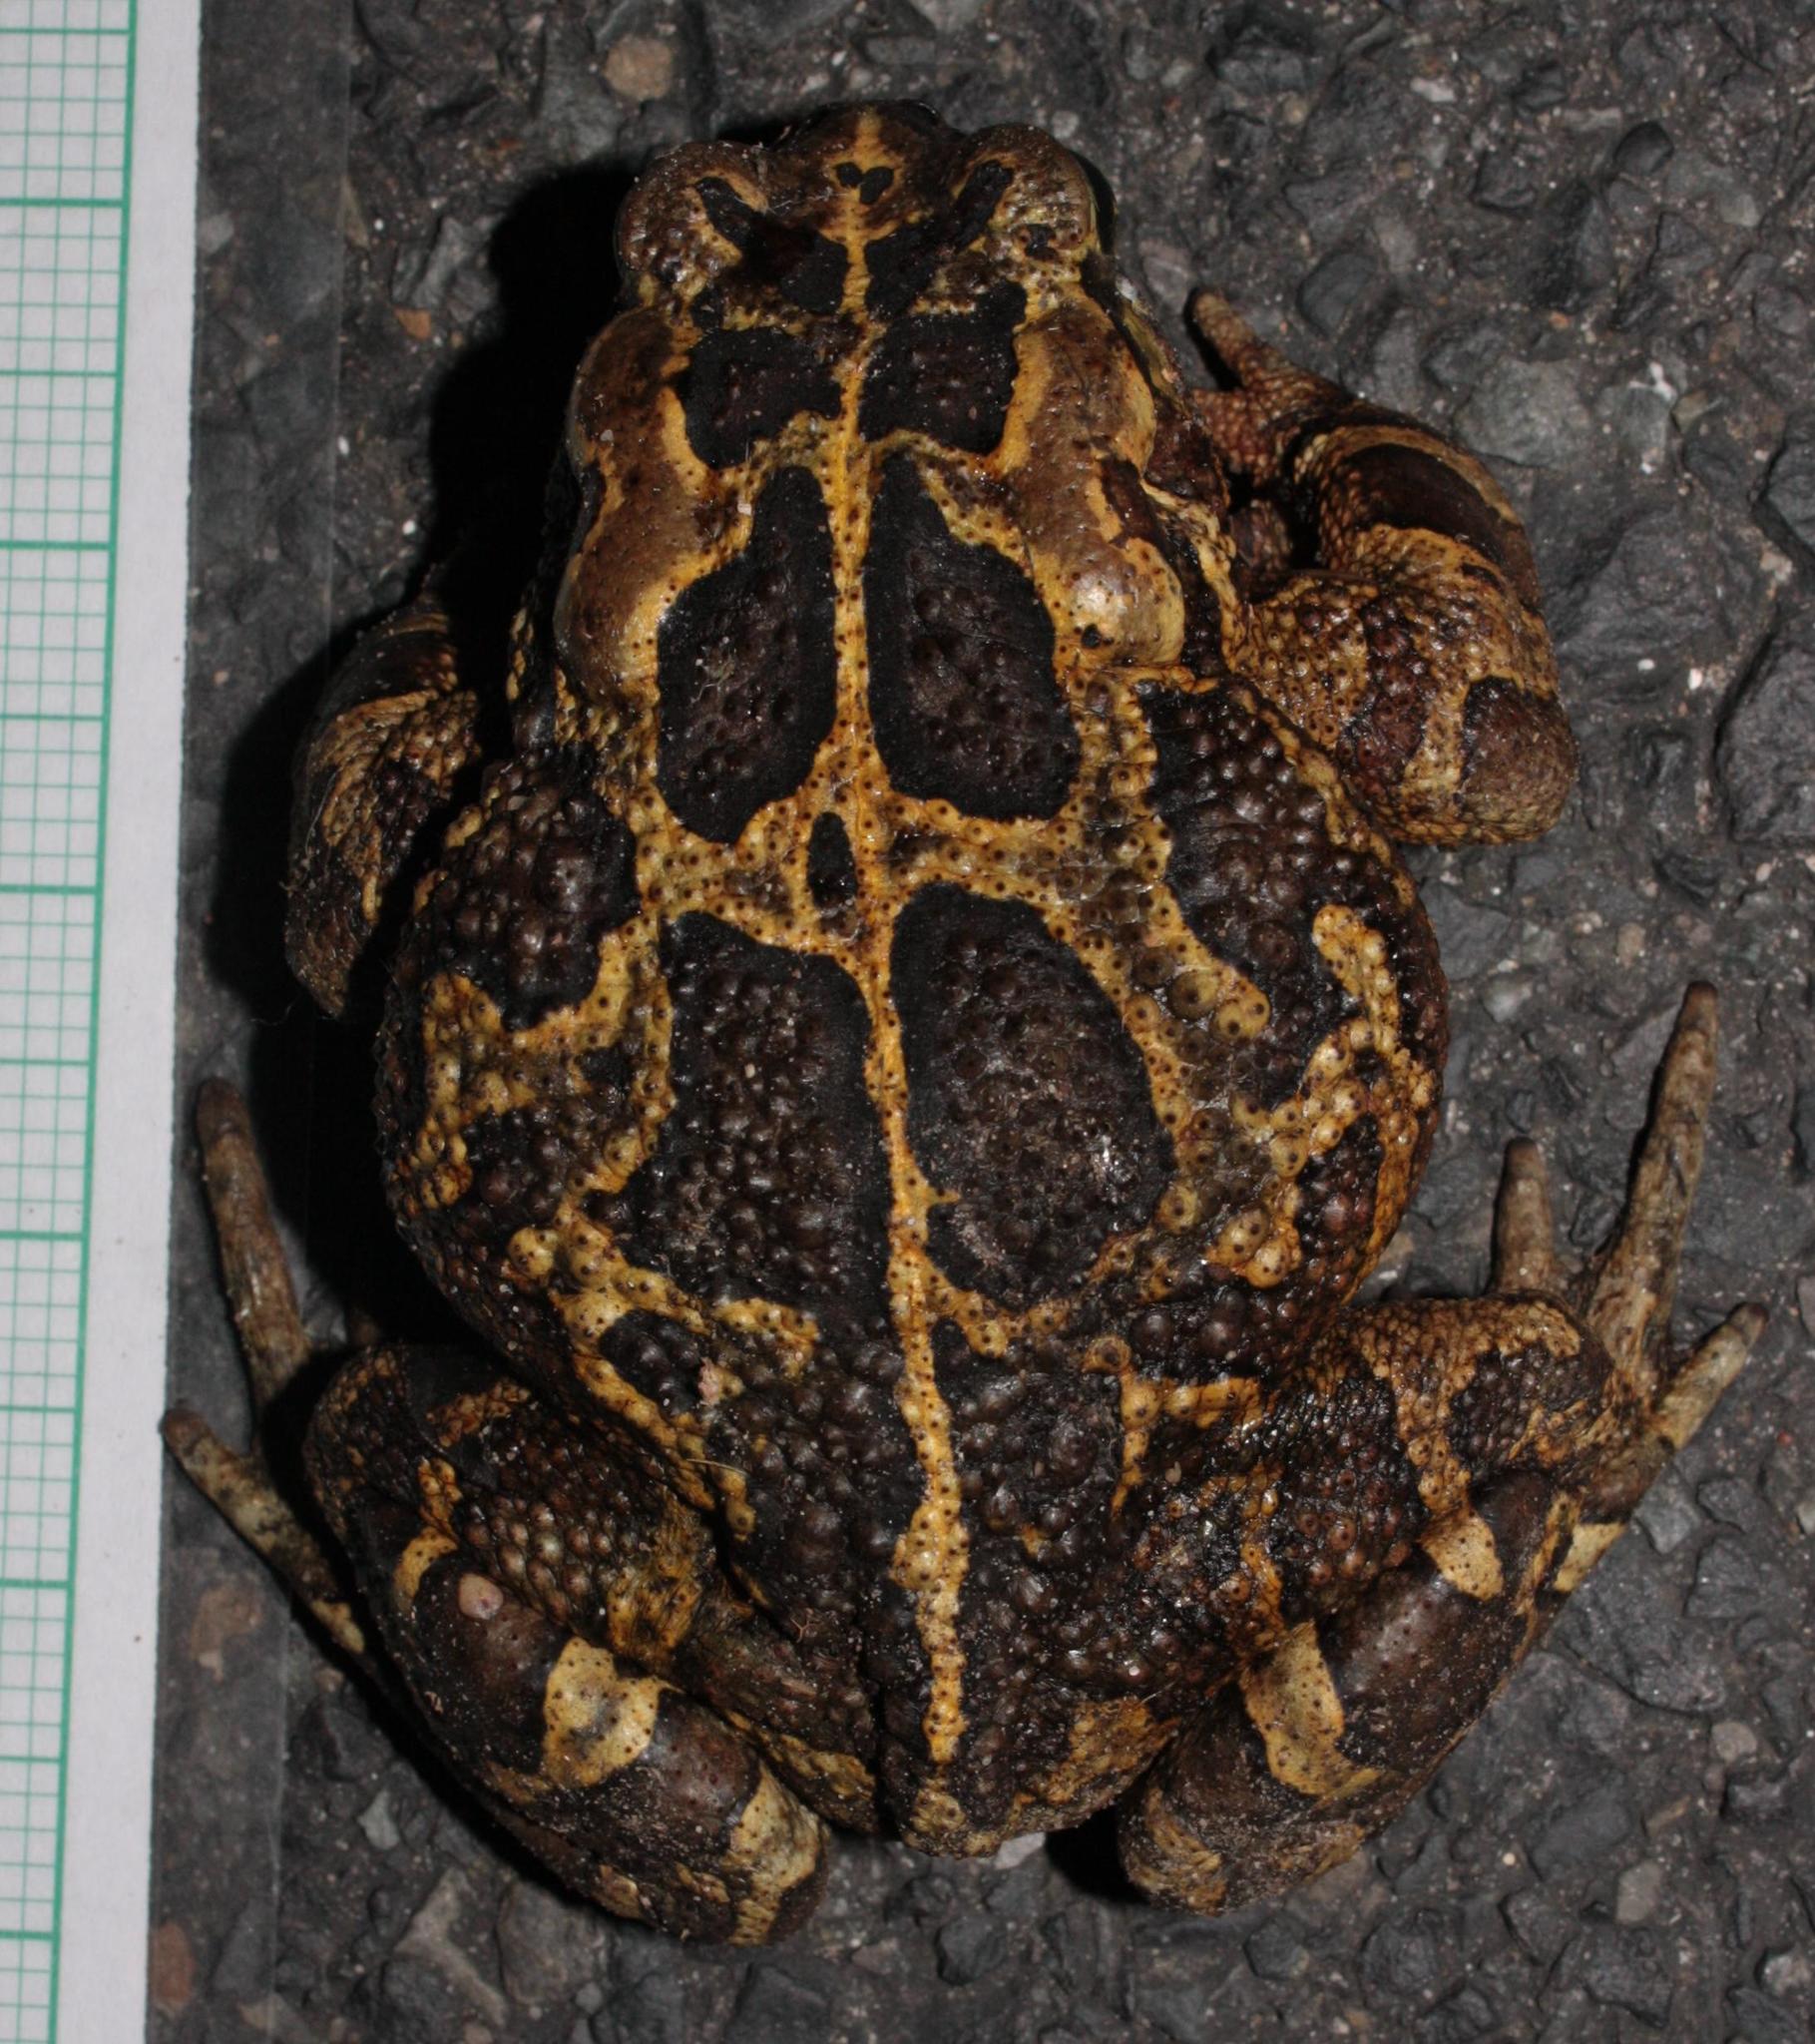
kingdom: Animalia
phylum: Chordata
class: Amphibia
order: Anura
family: Bufonidae
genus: Sclerophrys
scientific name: Sclerophrys pantherina
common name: Panther toad
